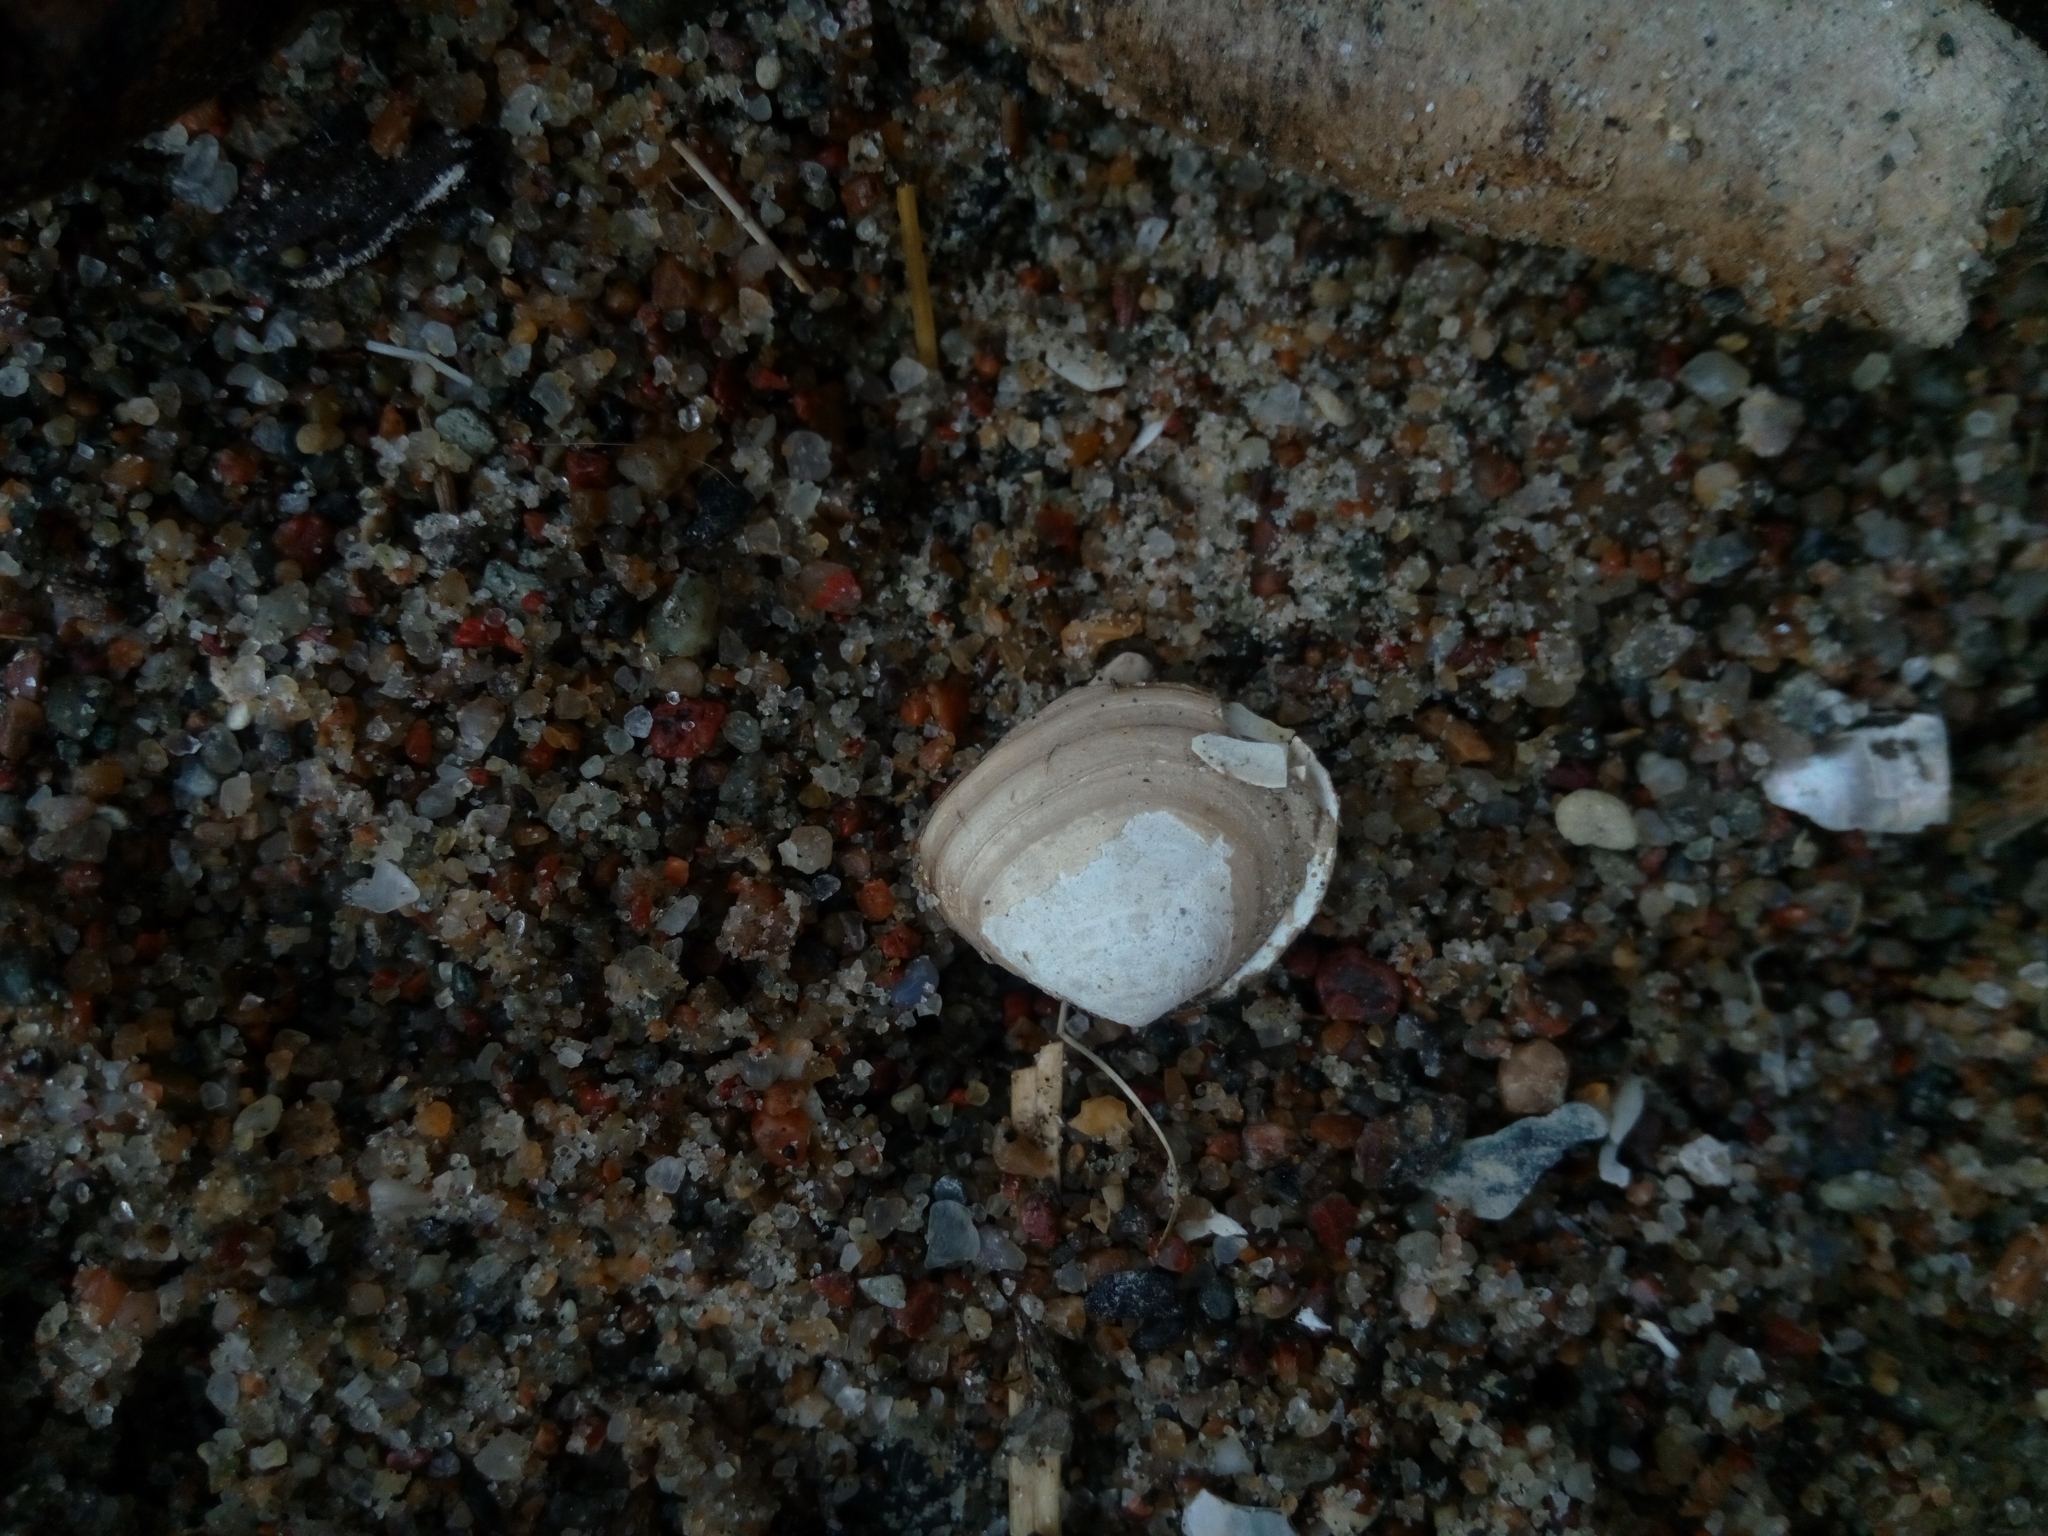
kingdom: Animalia
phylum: Mollusca
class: Bivalvia
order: Cardiida
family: Tellinidae
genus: Macoma
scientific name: Macoma balthica
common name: Baltic tellin
